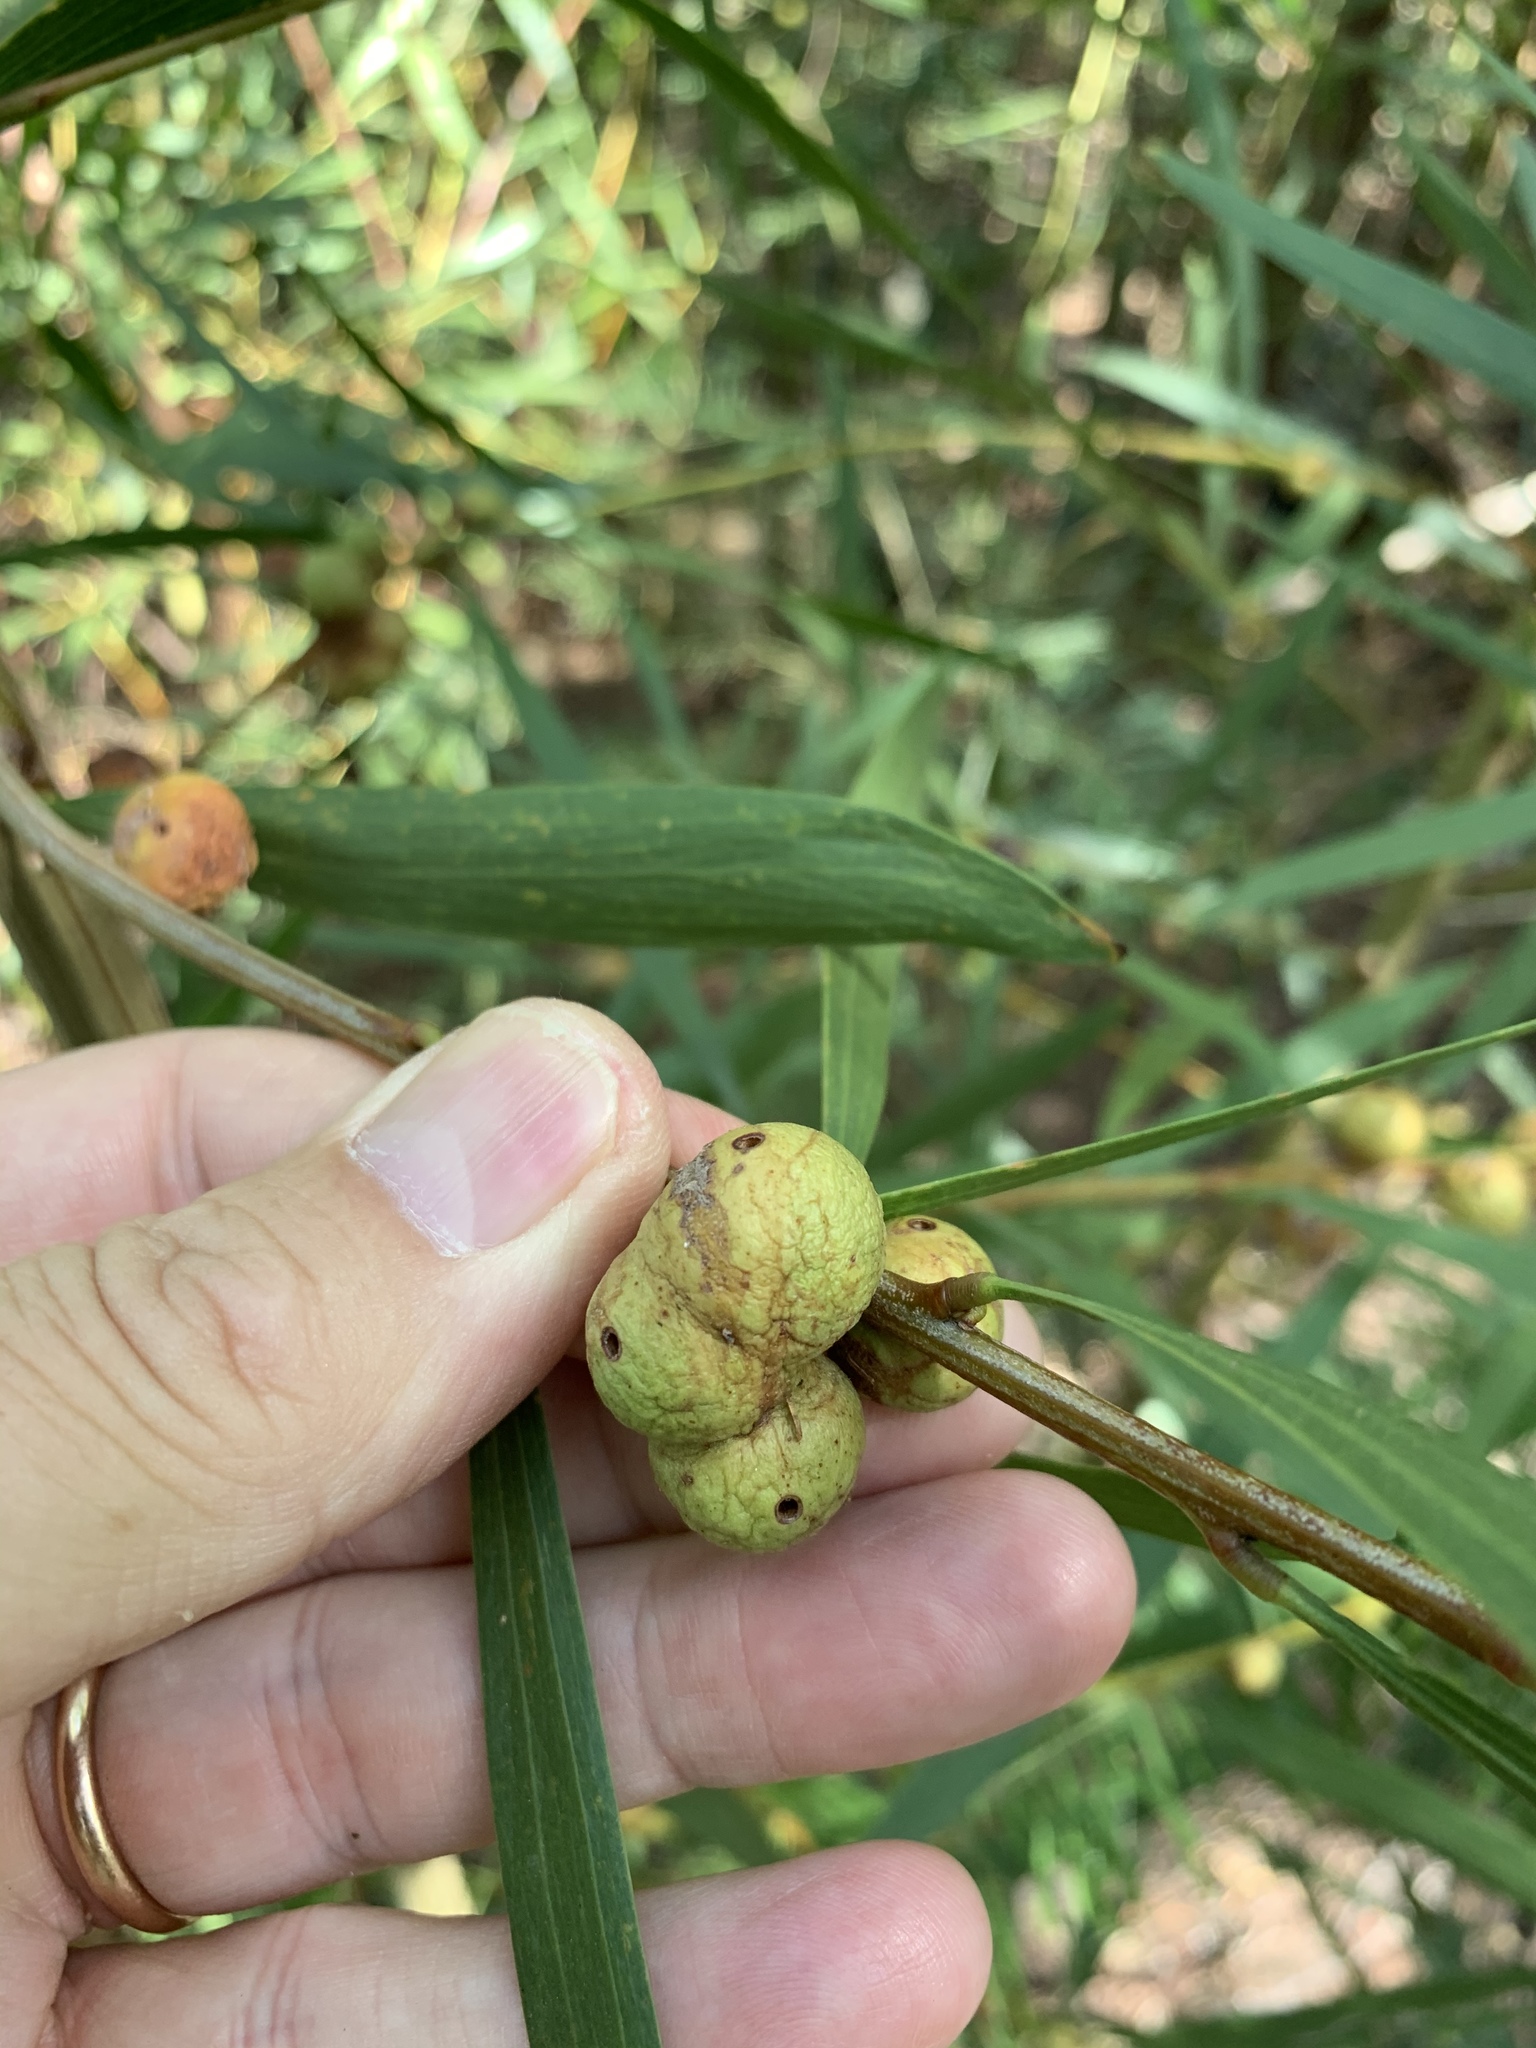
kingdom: Plantae
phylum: Tracheophyta
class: Magnoliopsida
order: Fabales
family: Fabaceae
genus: Acacia
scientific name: Acacia longifolia
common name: Sydney golden wattle
